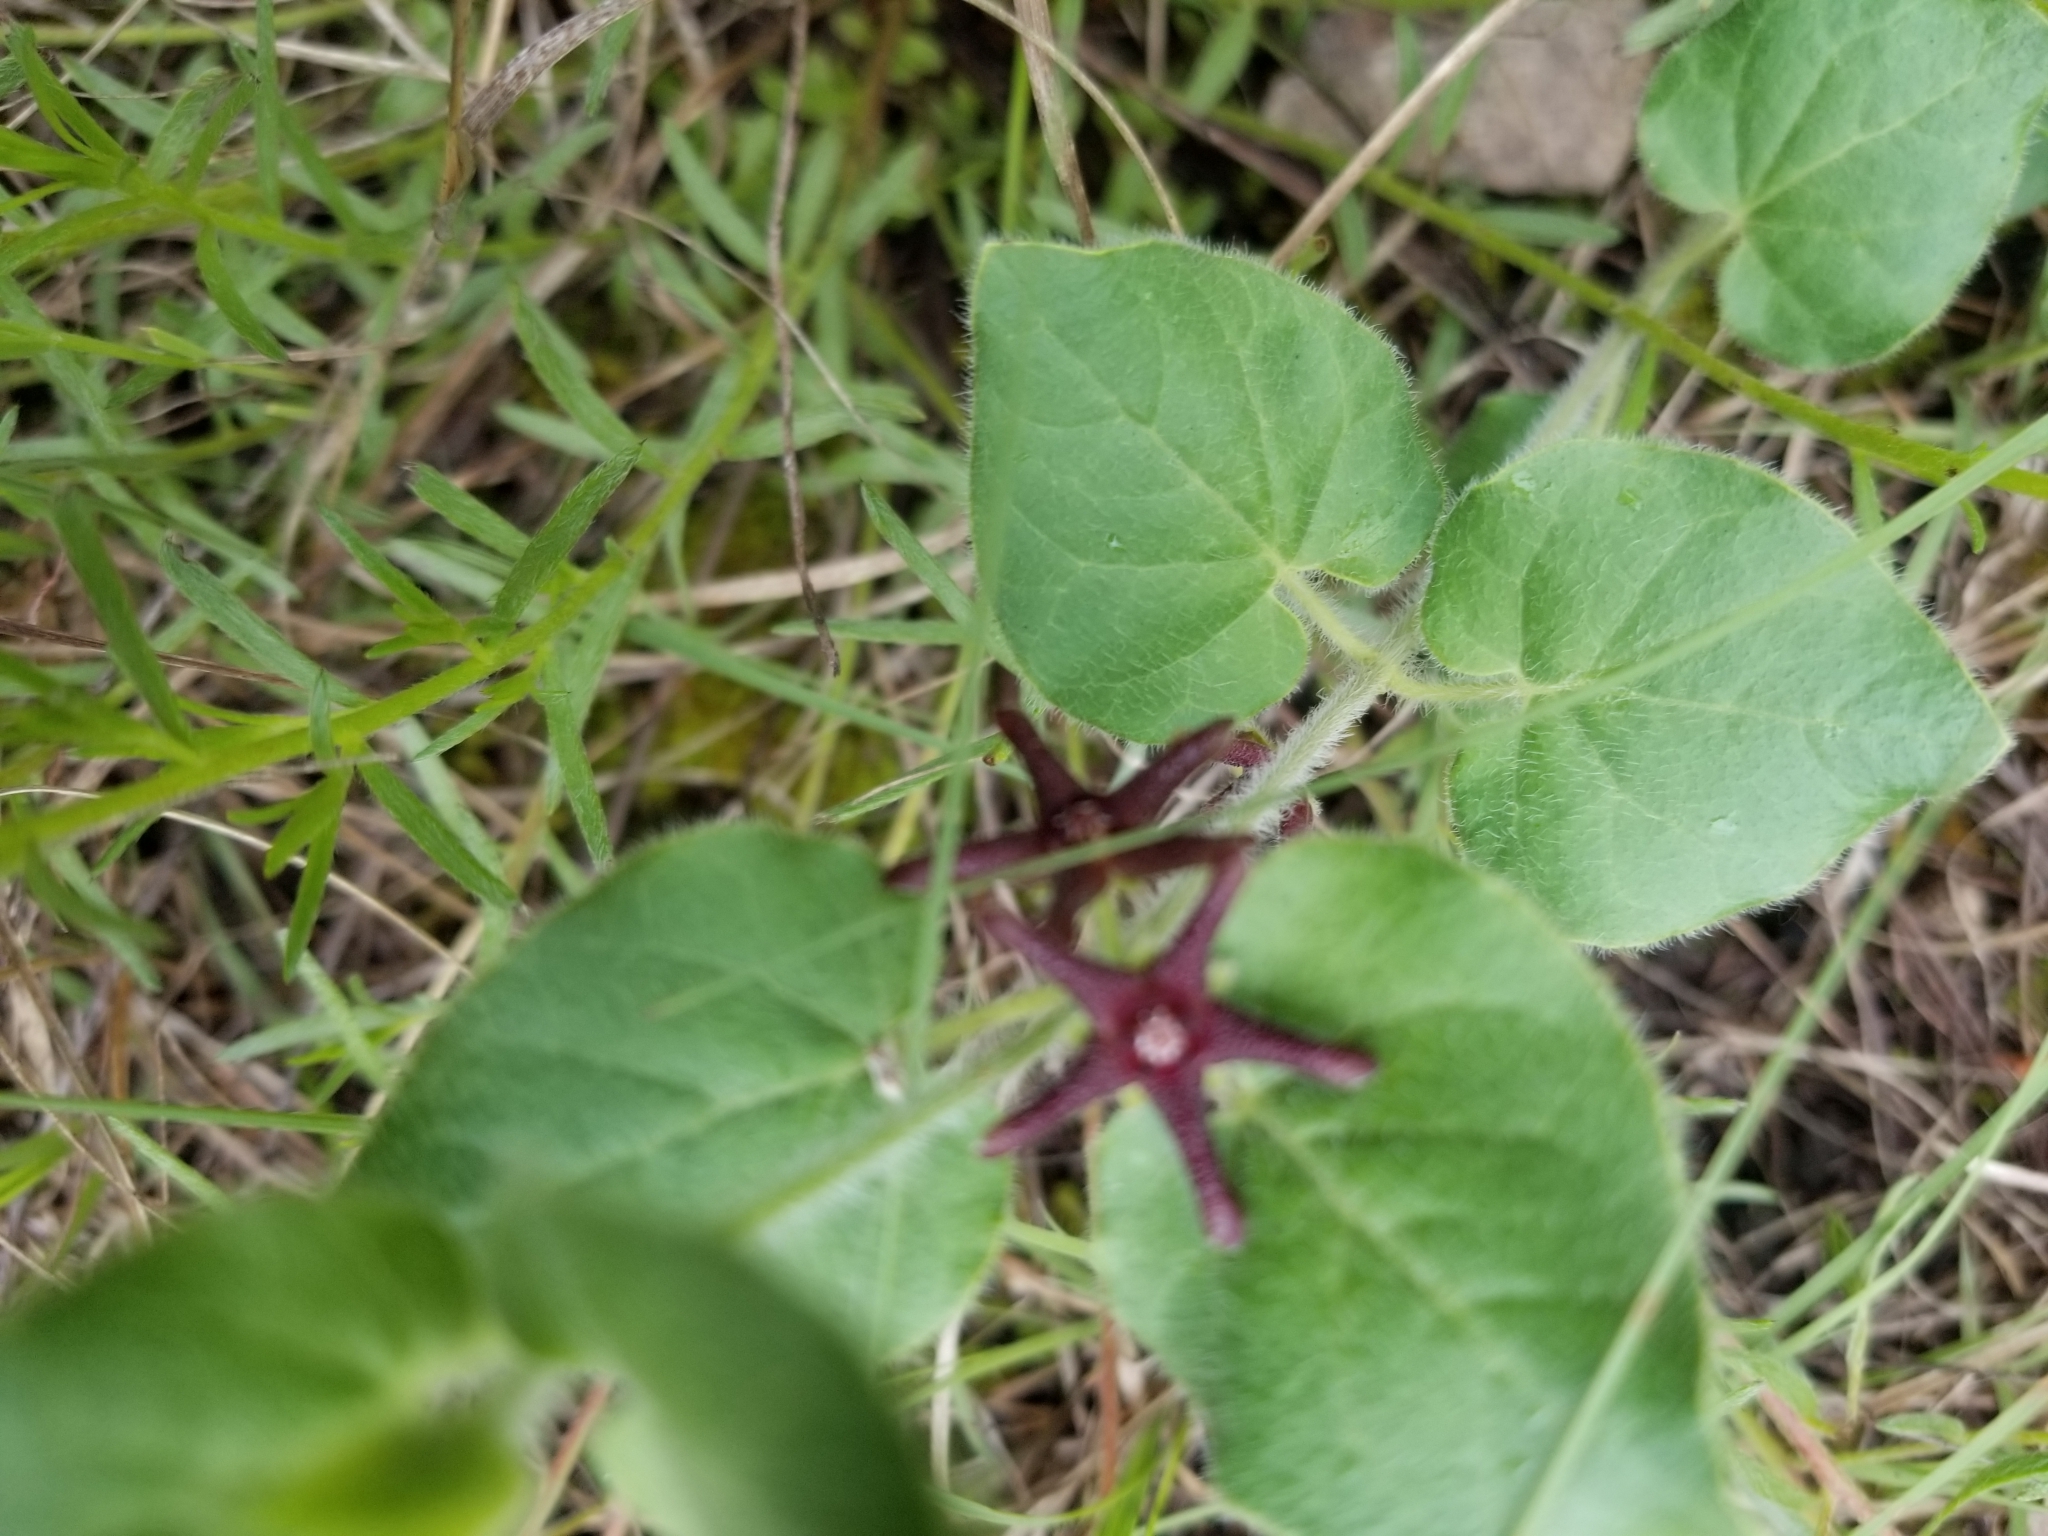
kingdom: Plantae
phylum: Tracheophyta
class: Magnoliopsida
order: Gentianales
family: Apocynaceae
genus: Chthamalia
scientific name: Chthamalia biflora
